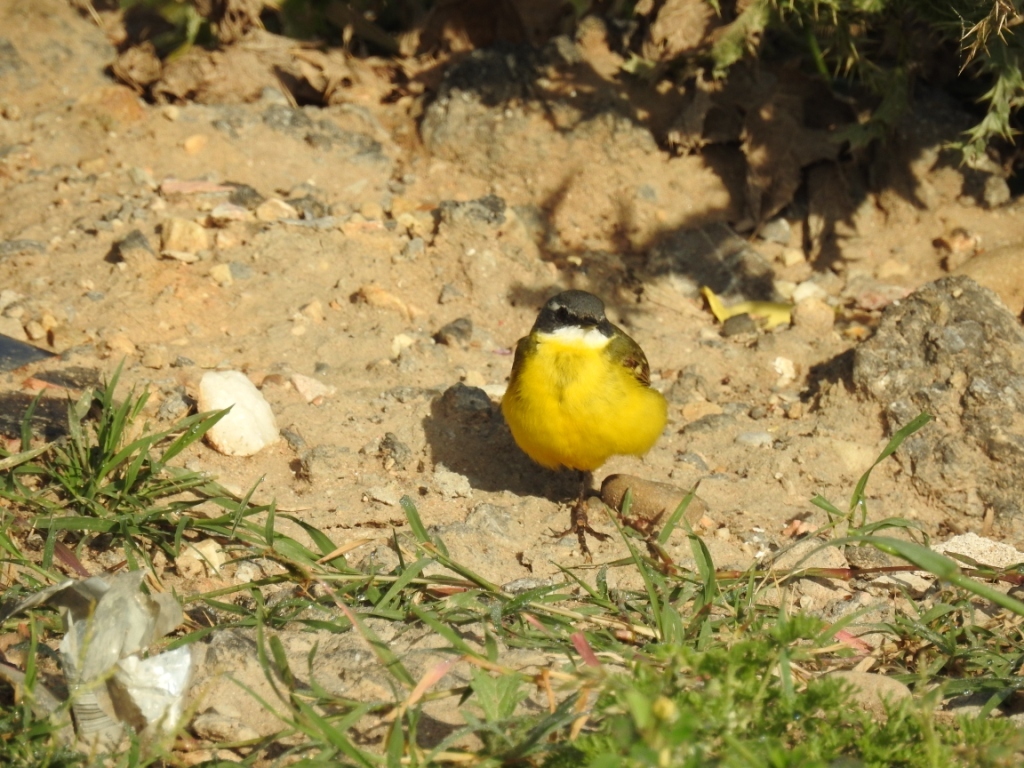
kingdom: Animalia
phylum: Chordata
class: Aves
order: Passeriformes
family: Motacillidae
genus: Motacilla
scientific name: Motacilla flava
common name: Western yellow wagtail
